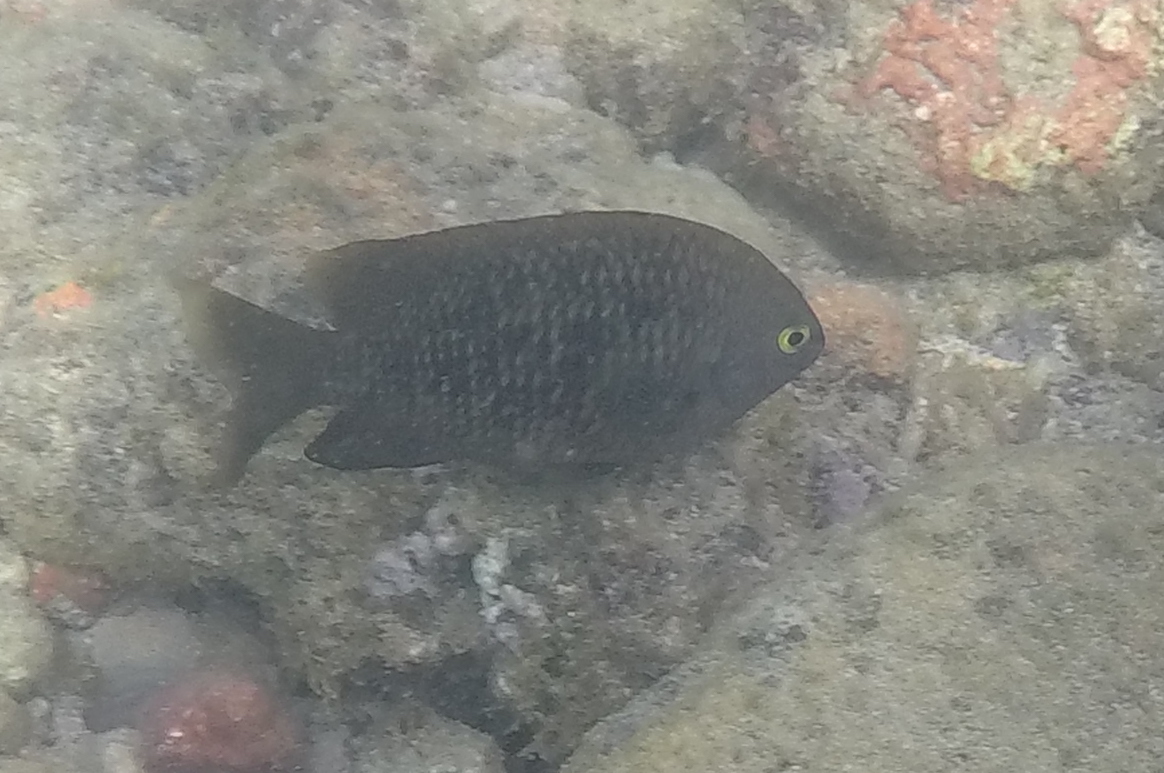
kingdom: Animalia
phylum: Chordata
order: Perciformes
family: Pomacentridae
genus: Stegastes
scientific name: Stegastes fasciolatus
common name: Pacific gregory
